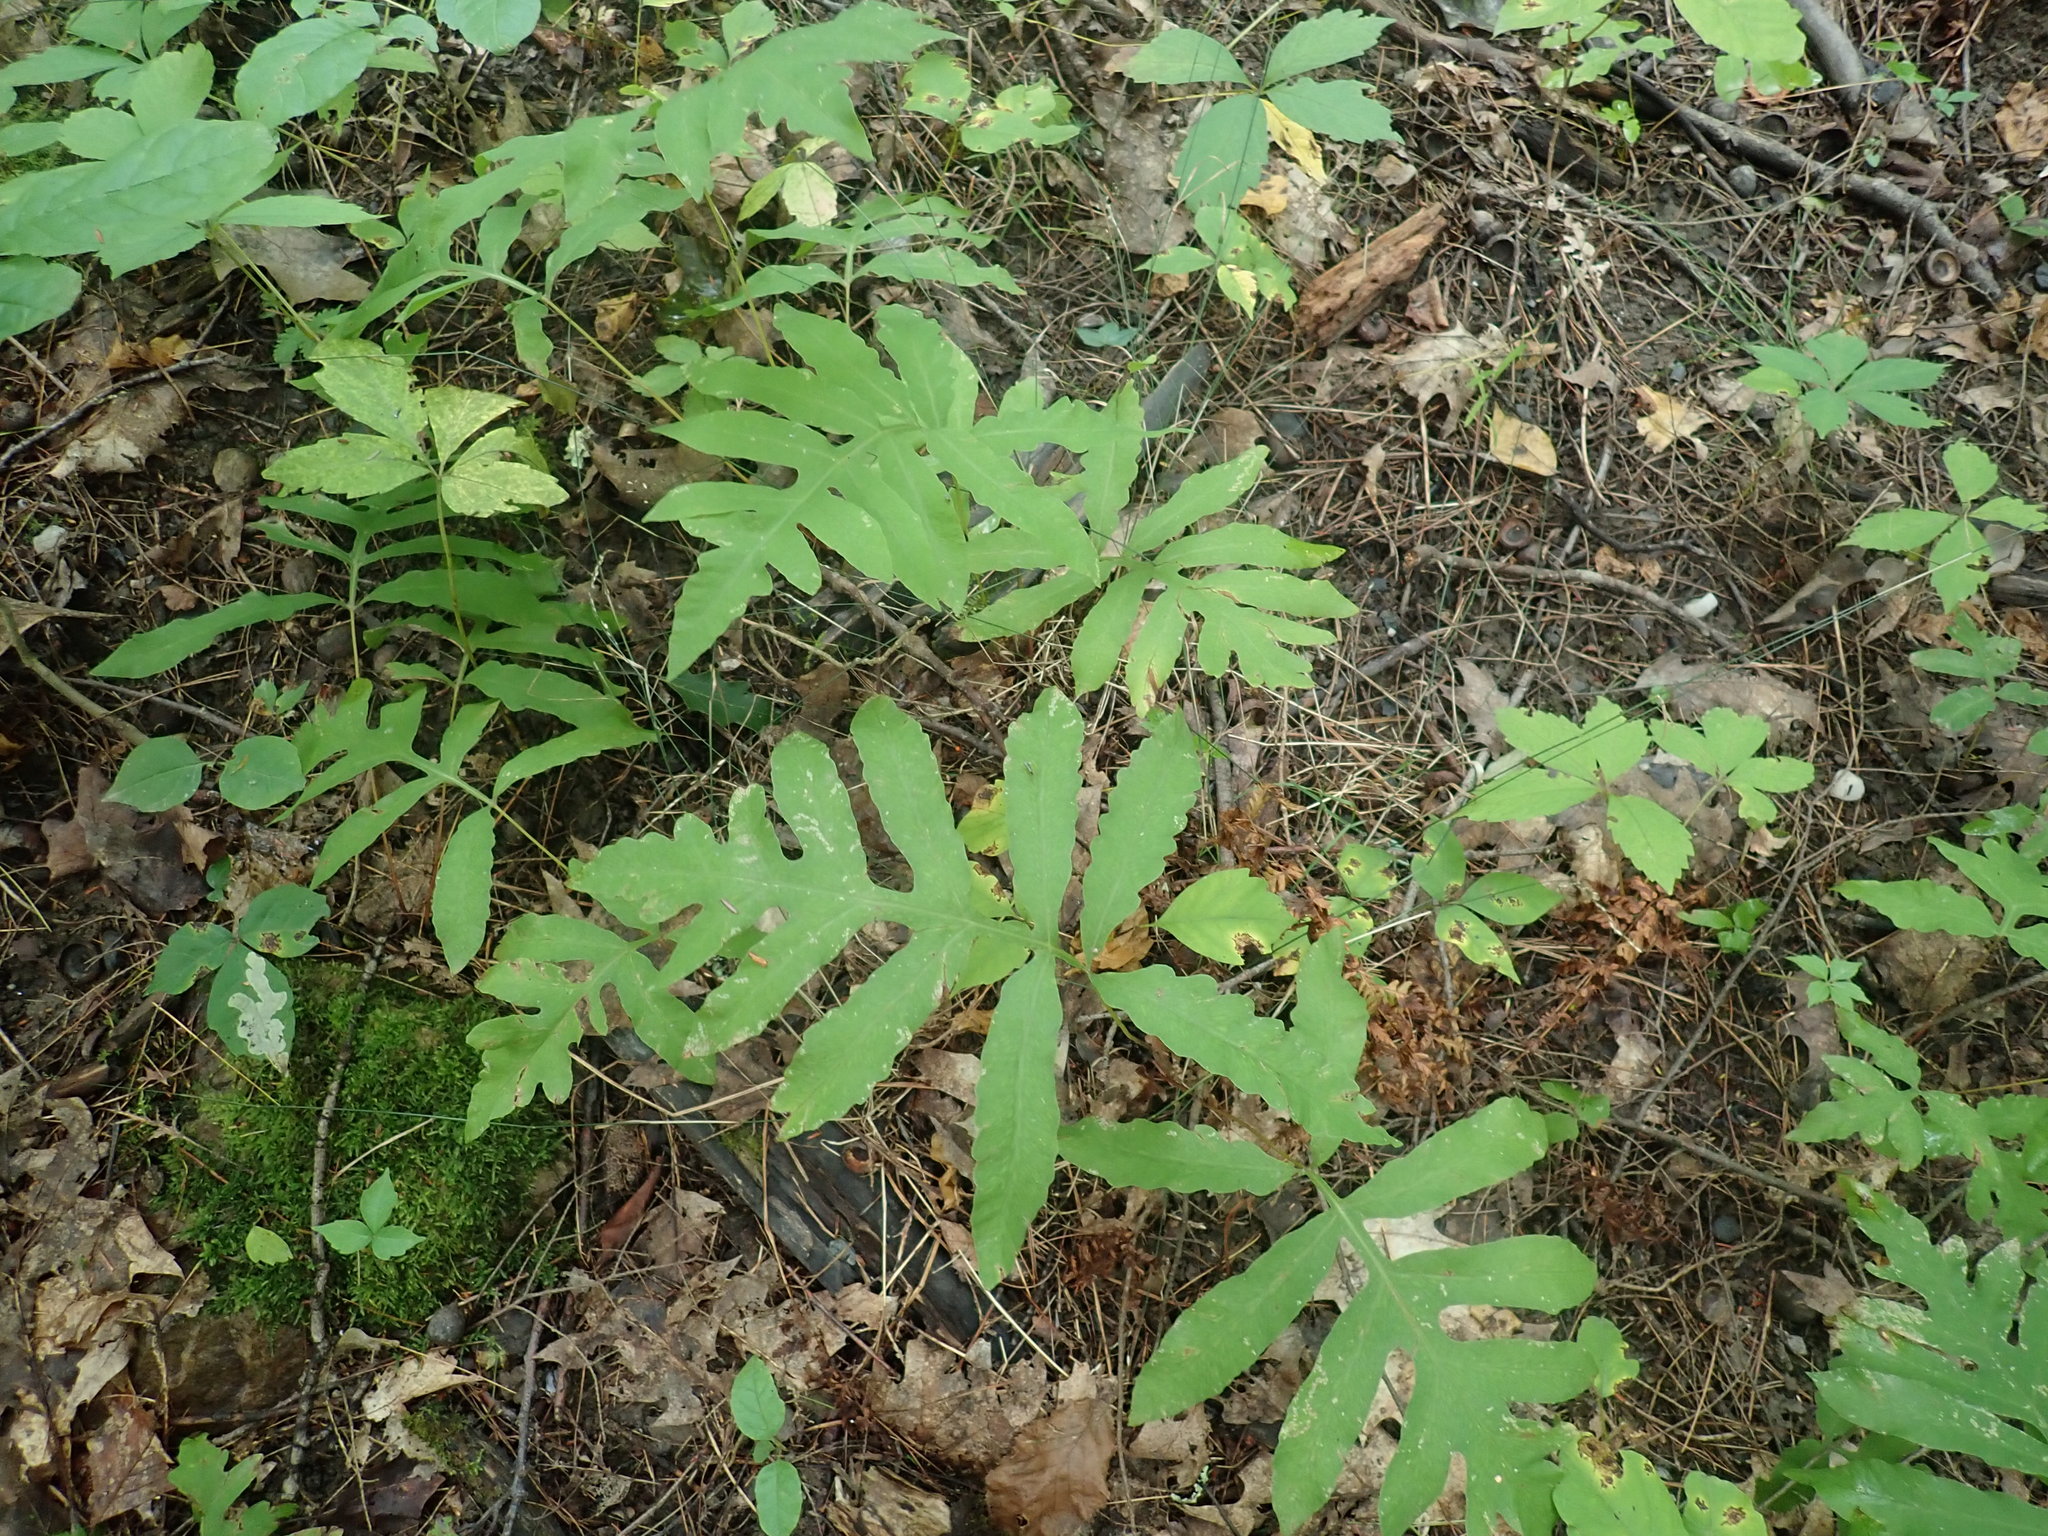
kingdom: Plantae
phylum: Tracheophyta
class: Polypodiopsida
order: Polypodiales
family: Onocleaceae
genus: Onoclea
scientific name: Onoclea sensibilis
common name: Sensitive fern
